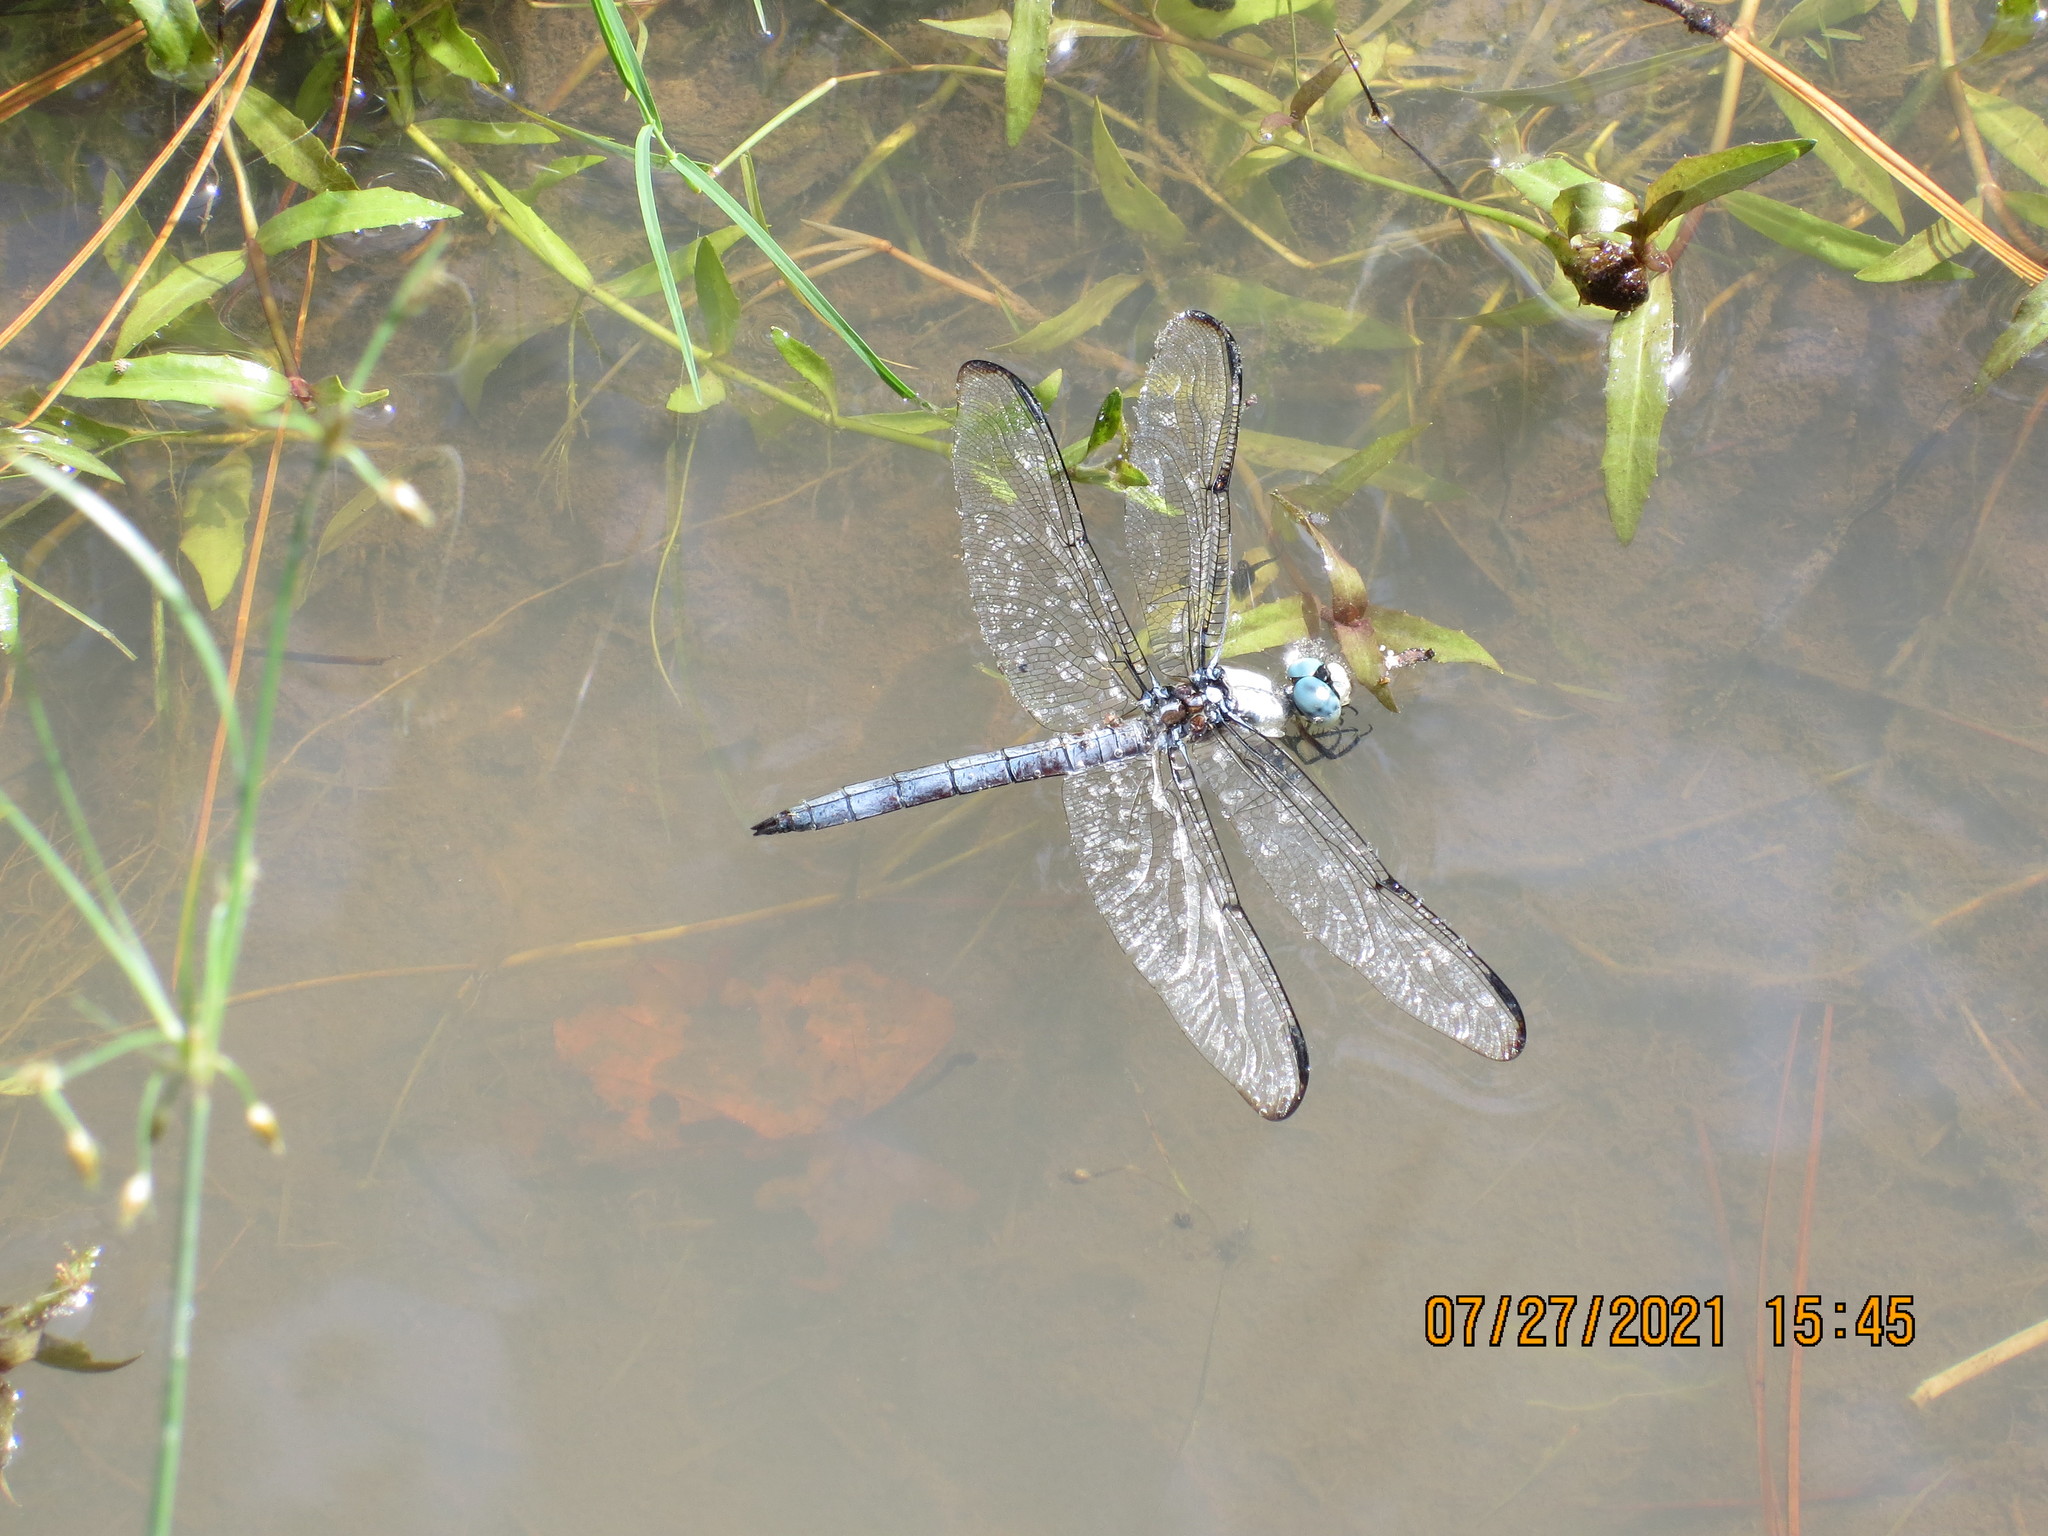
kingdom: Animalia
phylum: Arthropoda
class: Insecta
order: Odonata
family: Libellulidae
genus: Libellula
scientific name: Libellula vibrans
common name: Great blue skimmer
